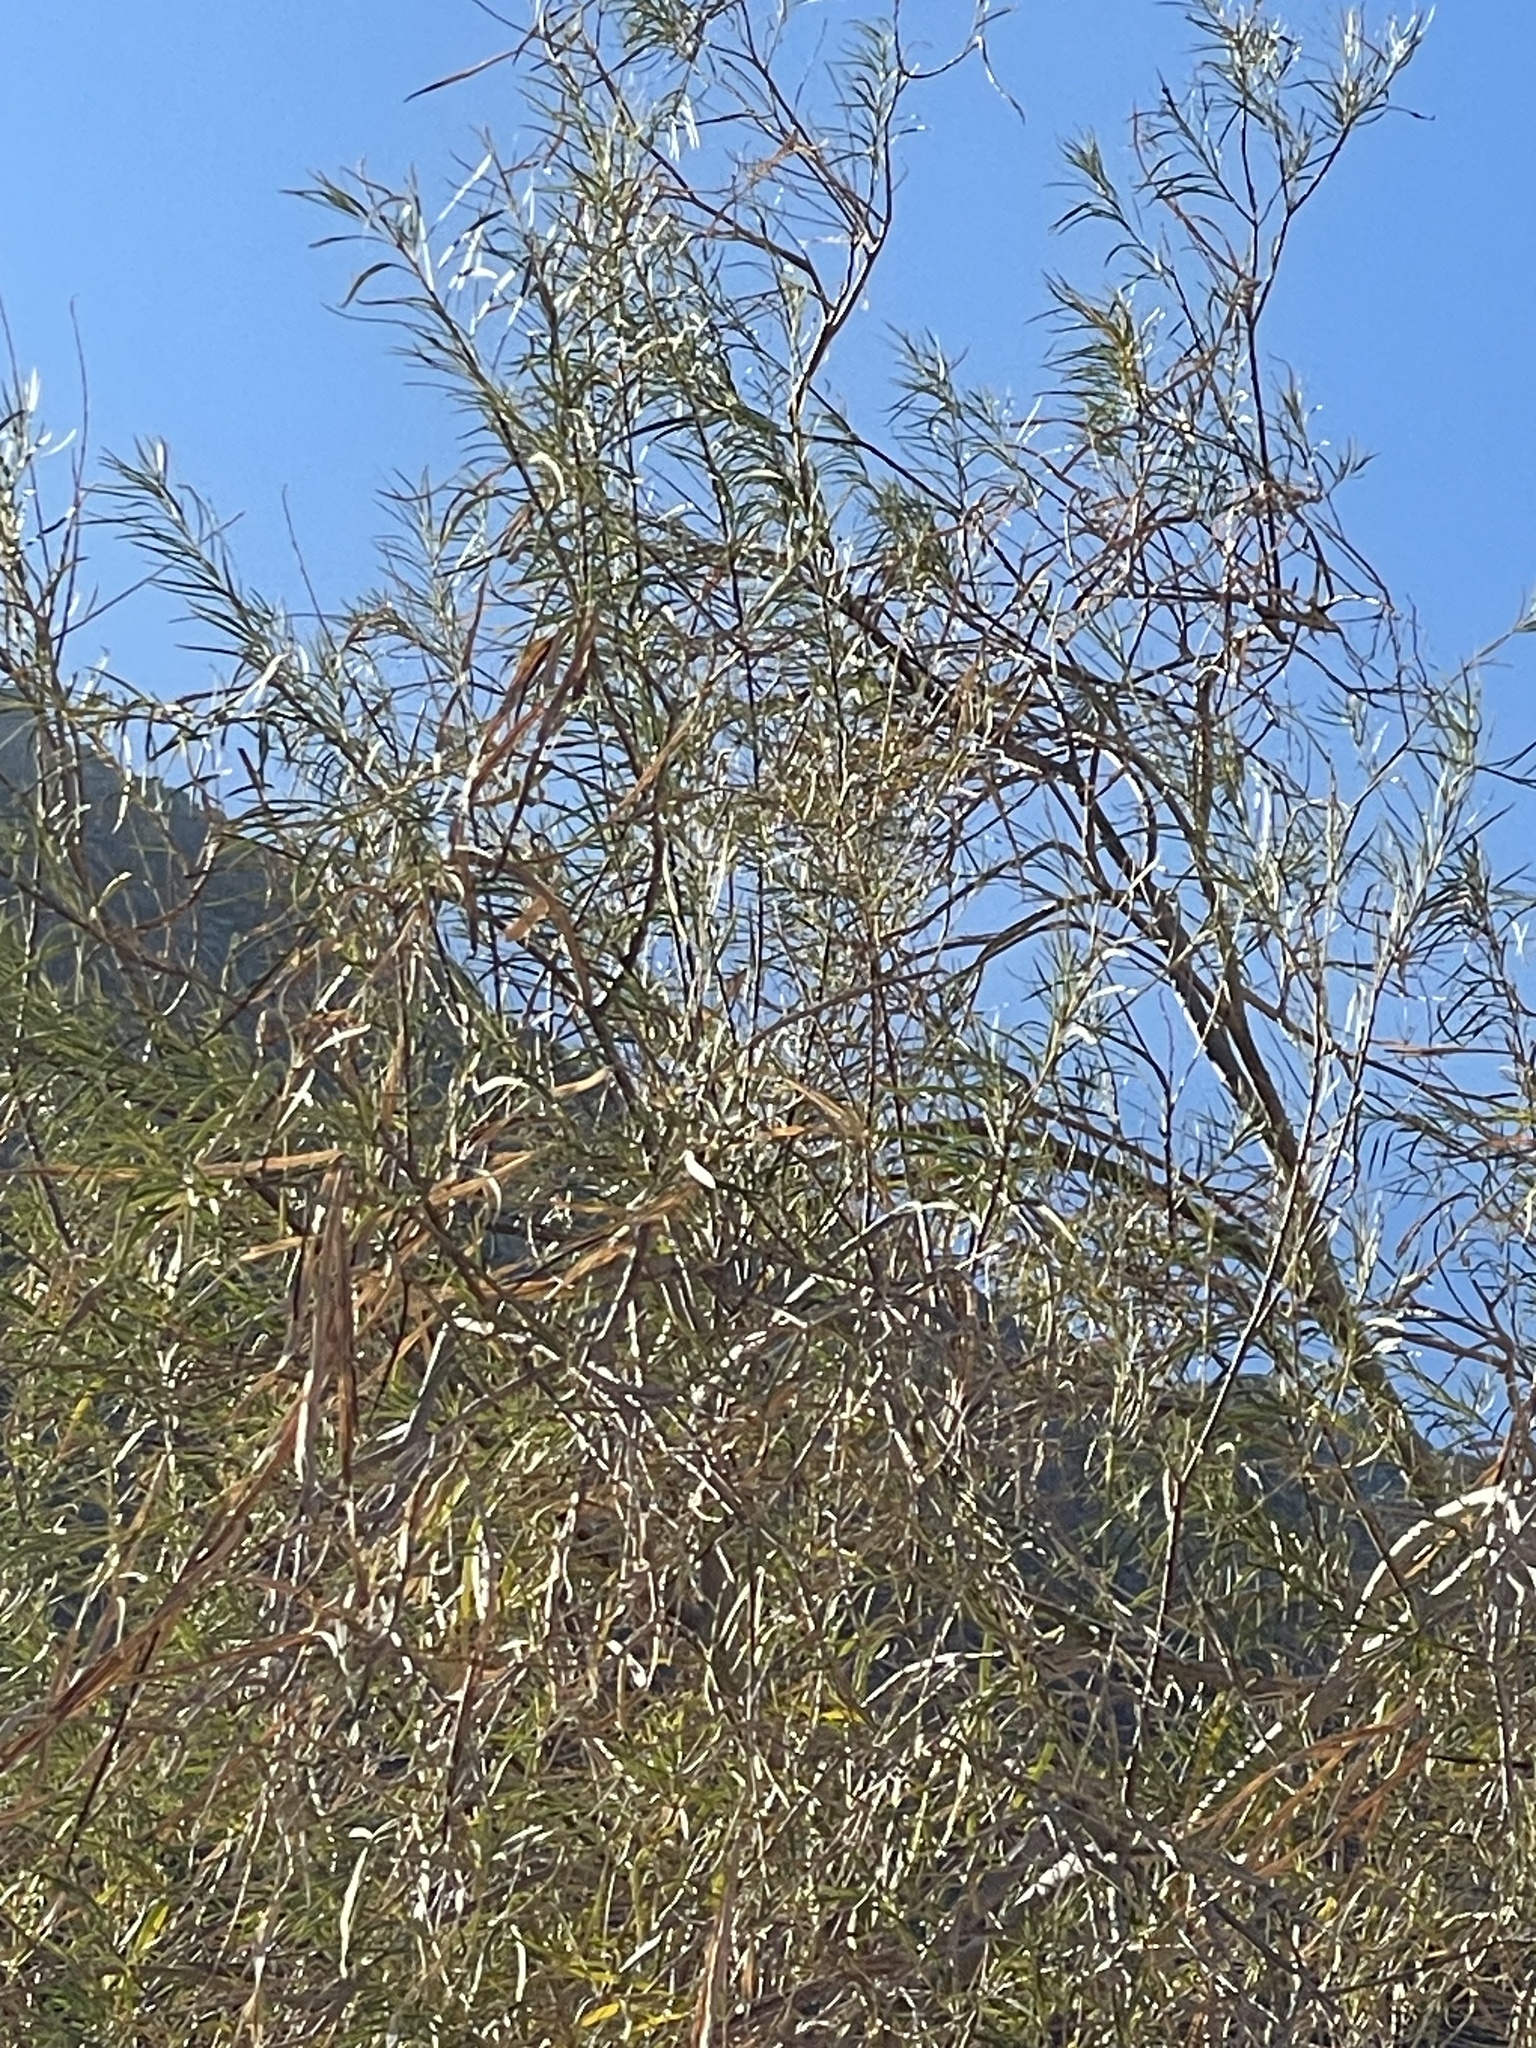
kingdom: Plantae
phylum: Tracheophyta
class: Magnoliopsida
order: Lamiales
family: Bignoniaceae
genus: Chilopsis
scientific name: Chilopsis linearis
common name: Desert-willow
